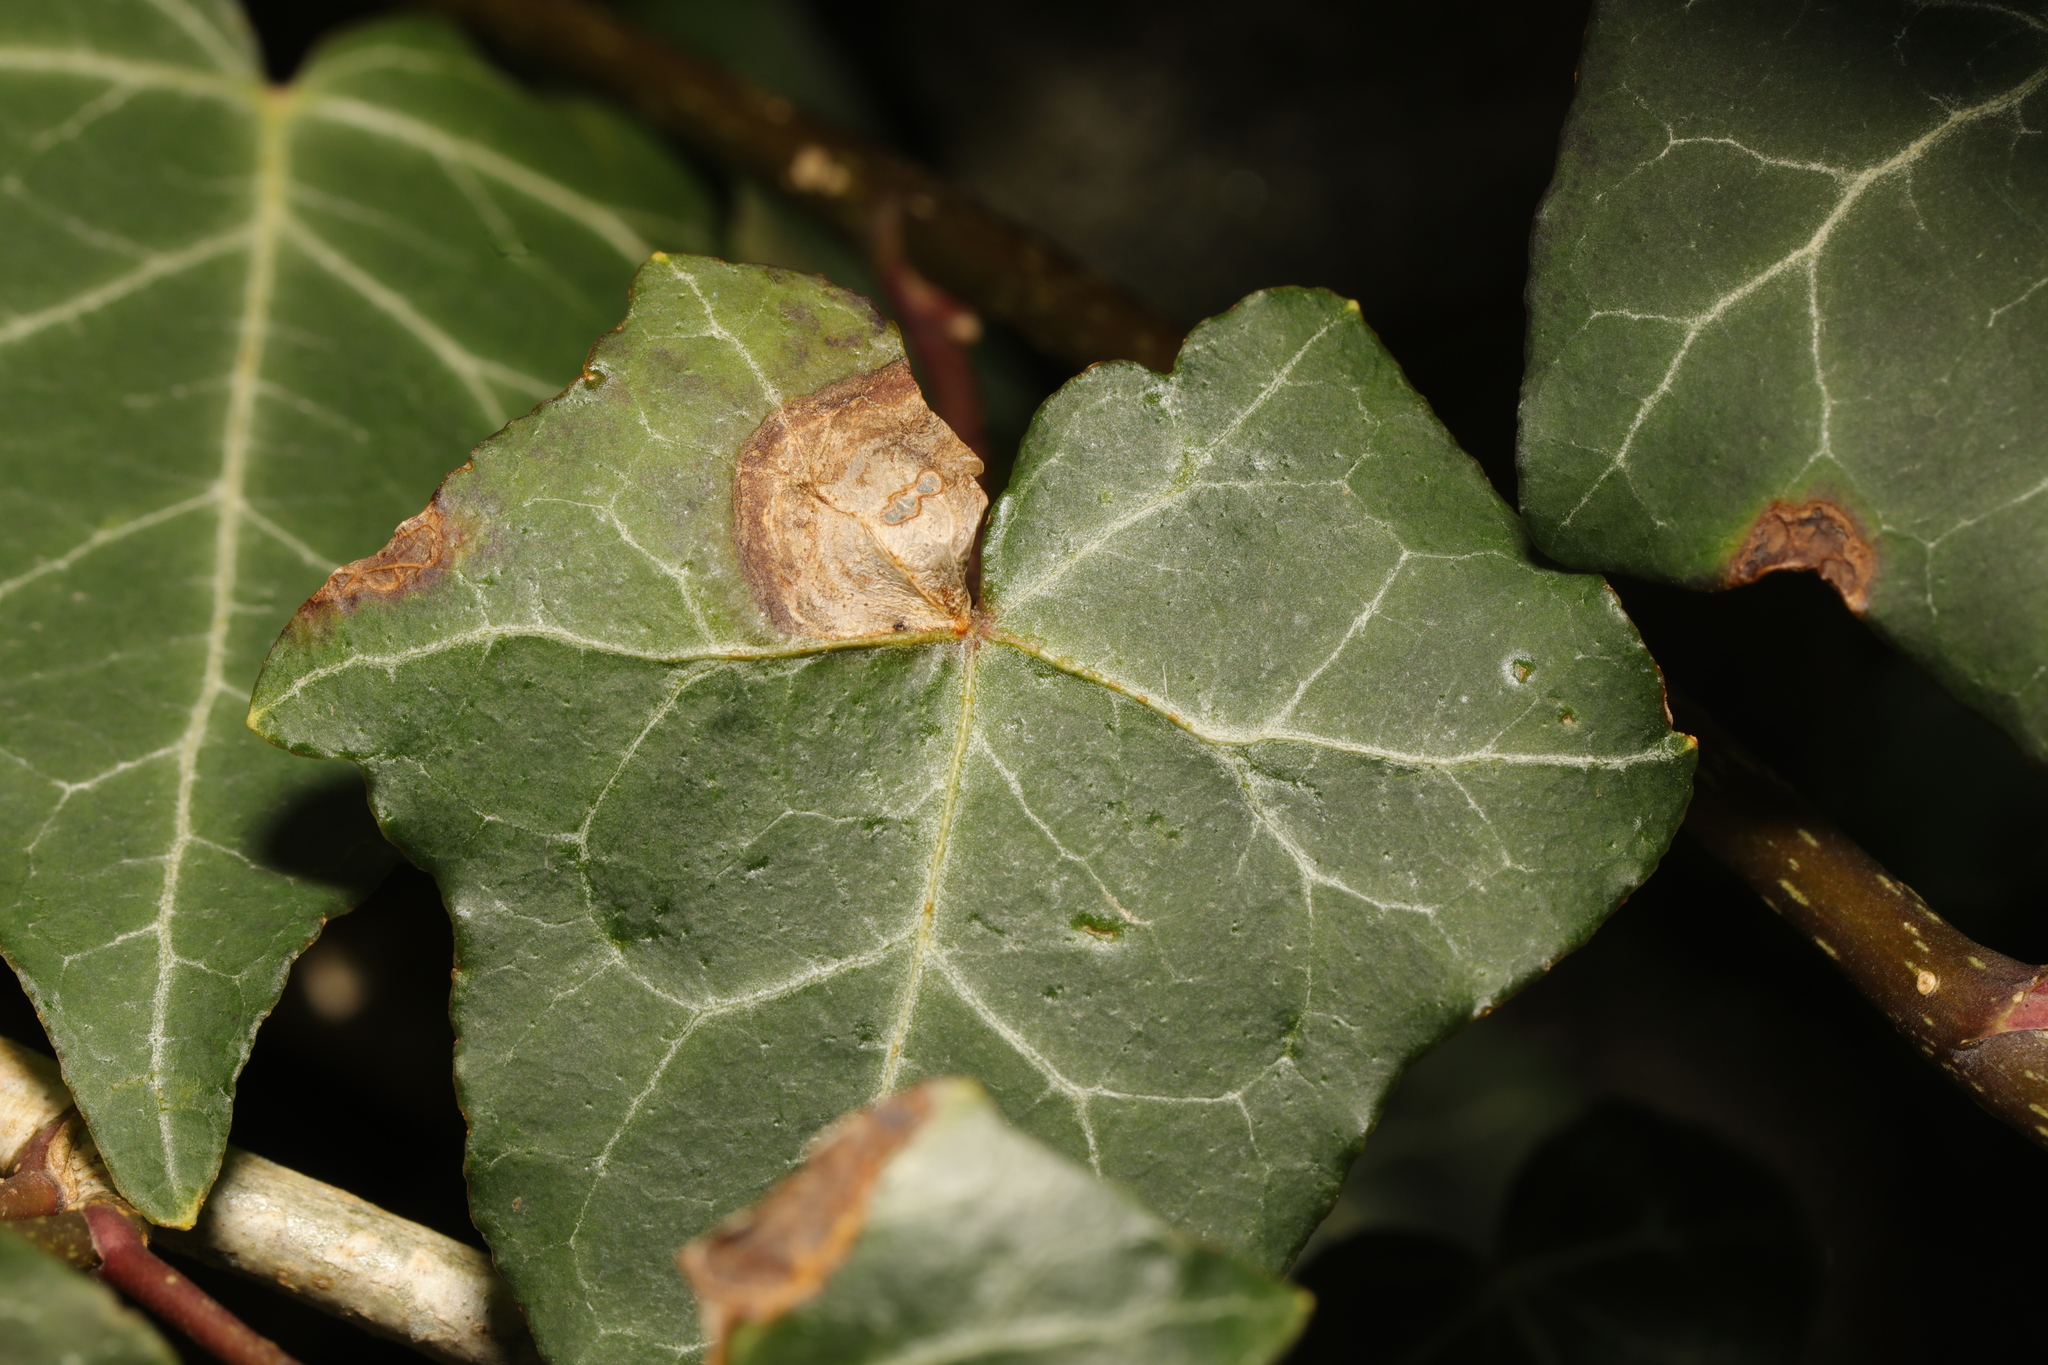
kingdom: Fungi
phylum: Ascomycota
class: Dothideomycetes
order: Pleosporales
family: Didymellaceae
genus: Boeremia
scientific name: Boeremia hedericola
